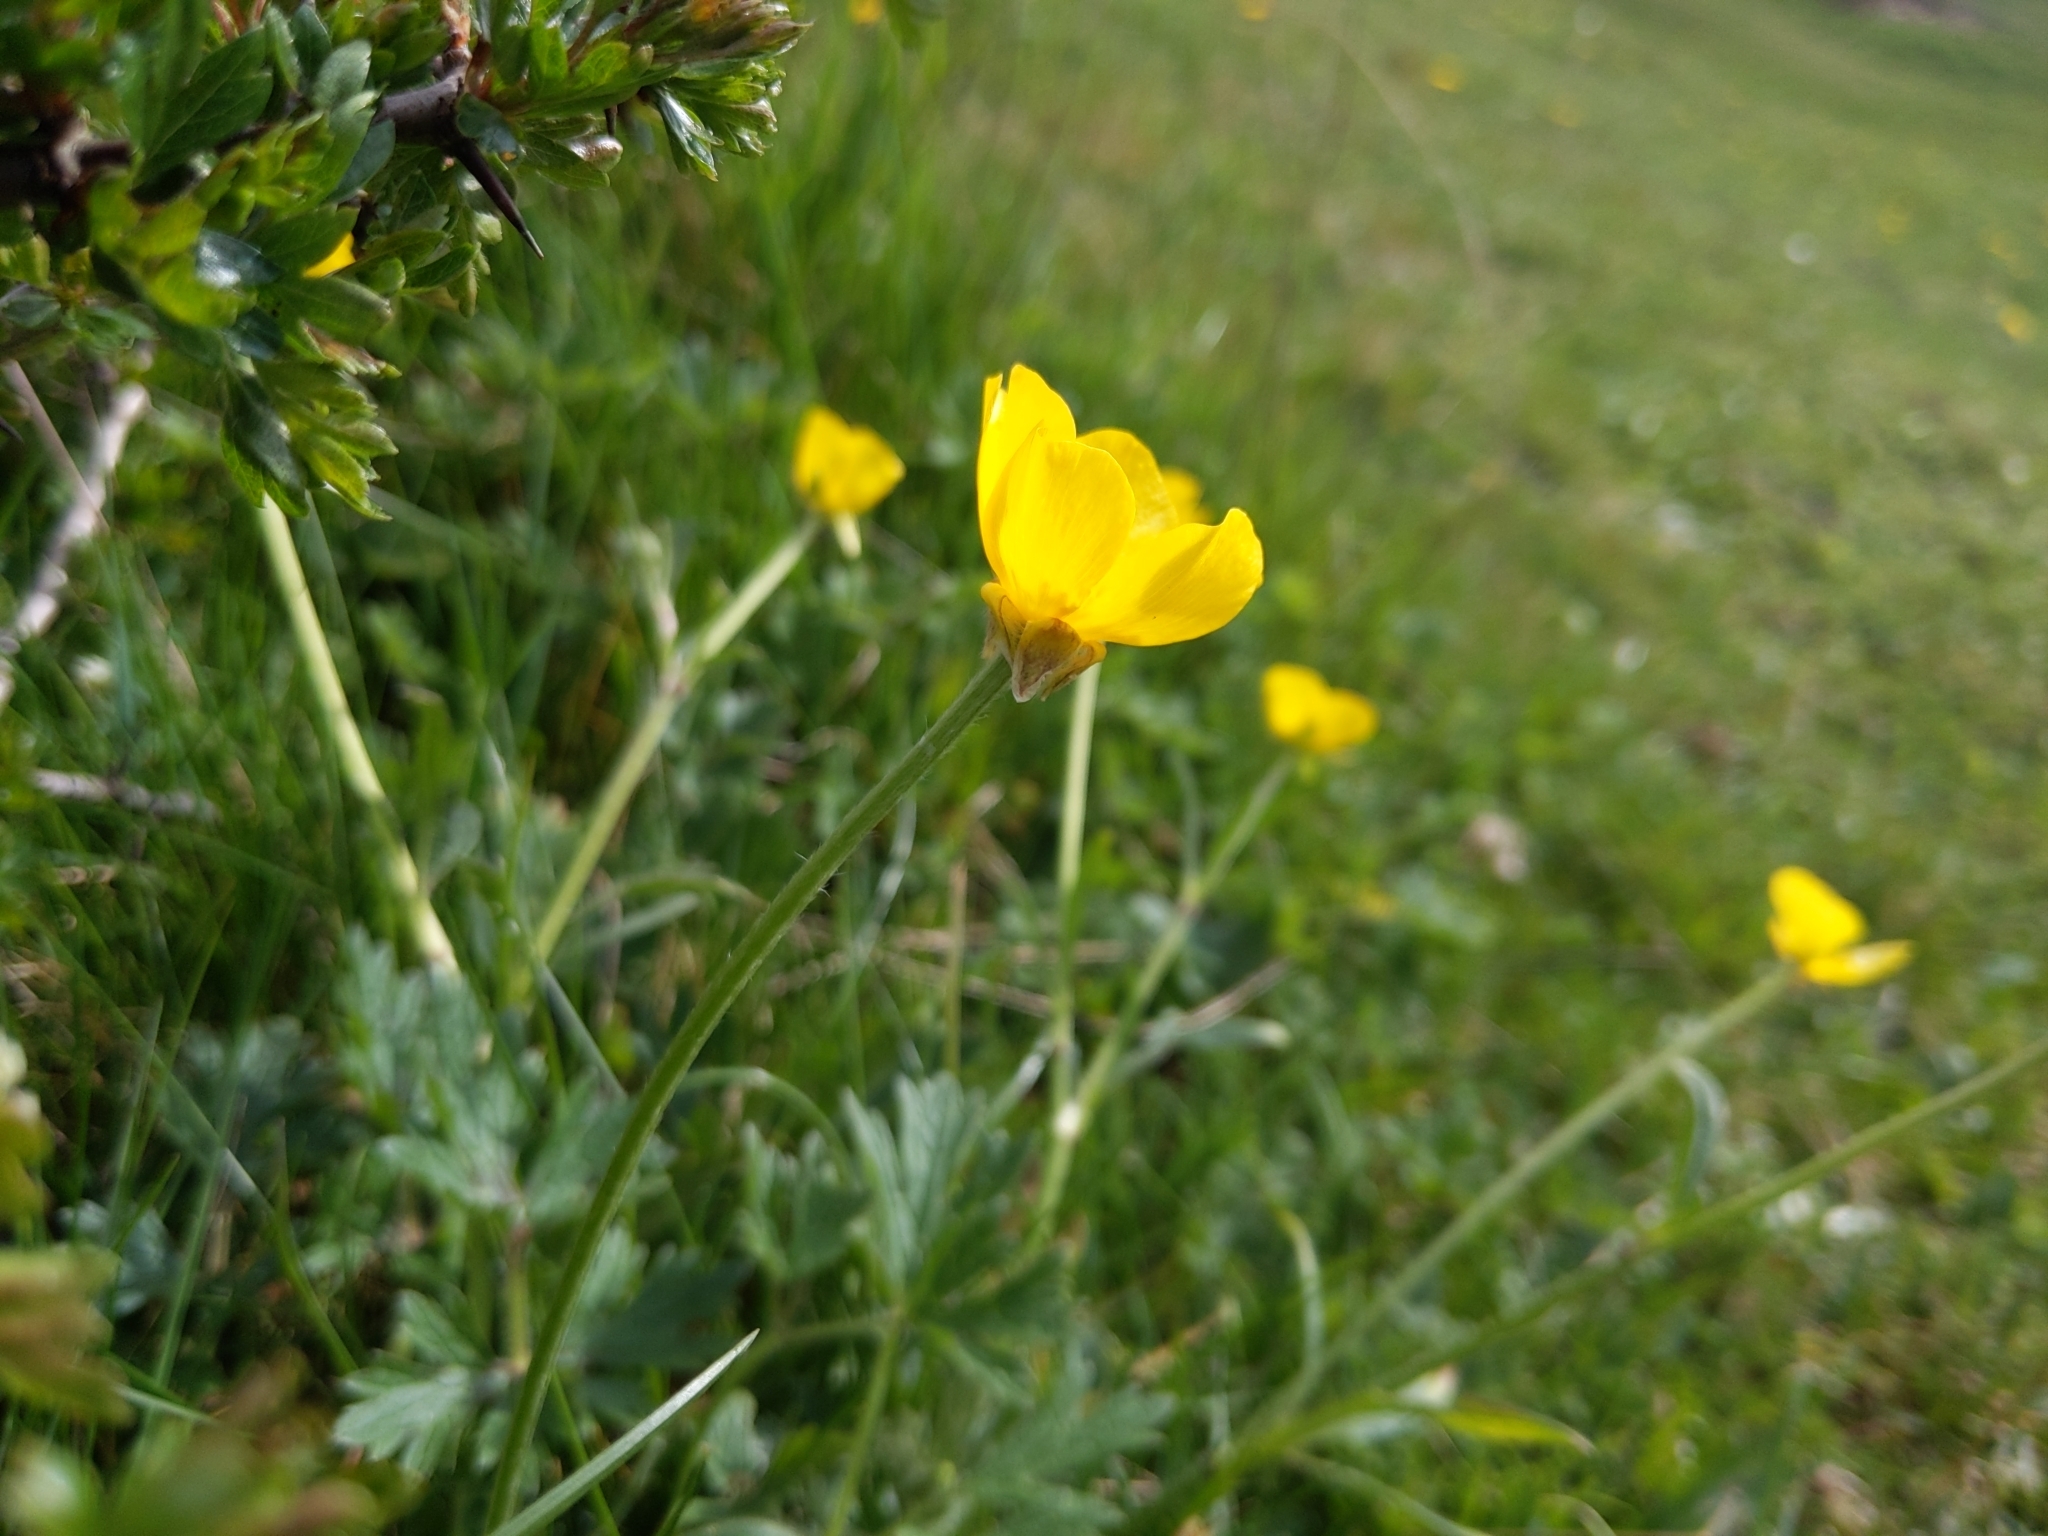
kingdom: Plantae
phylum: Tracheophyta
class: Magnoliopsida
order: Ranunculales
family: Ranunculaceae
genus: Ranunculus
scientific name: Ranunculus bulbosus
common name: Bulbous buttercup
